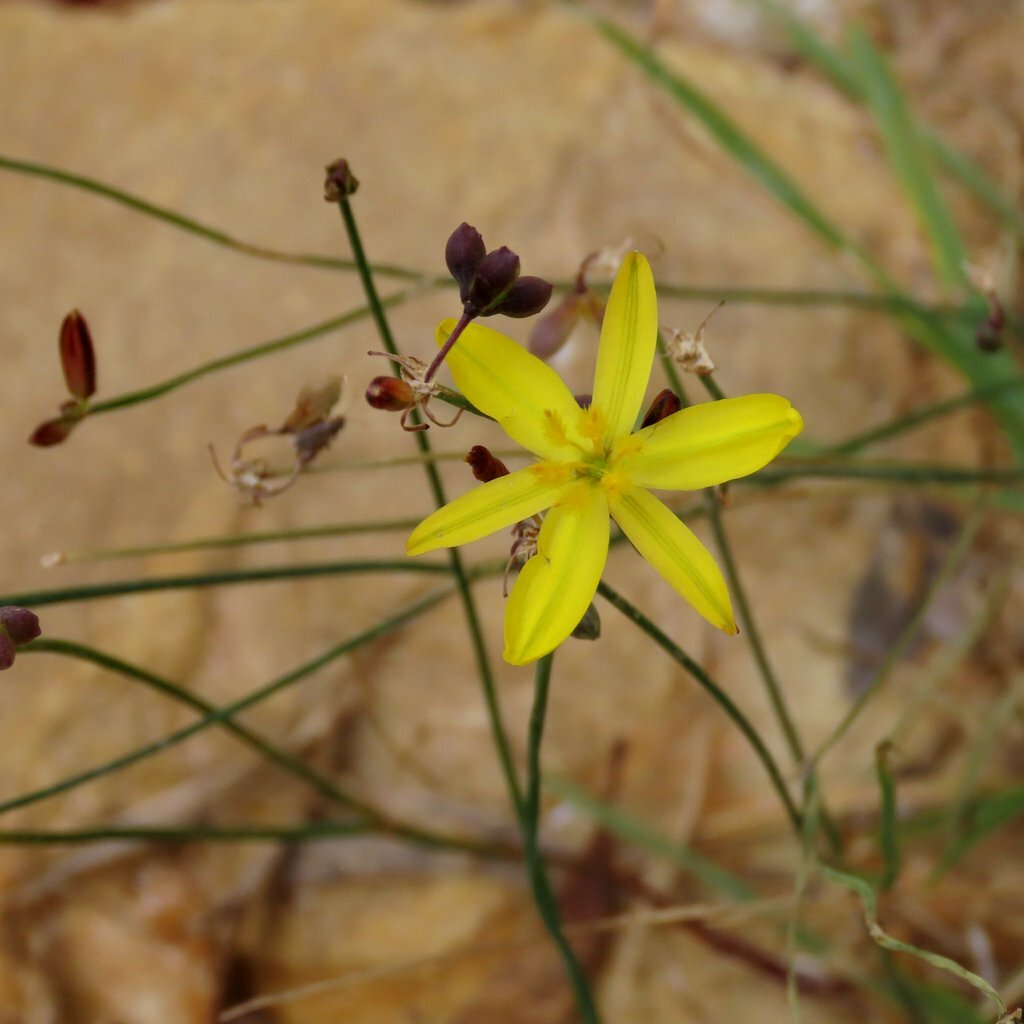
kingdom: Plantae
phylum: Tracheophyta
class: Liliopsida
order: Asparagales
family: Asphodelaceae
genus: Tricoryne
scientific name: Tricoryne elatior
